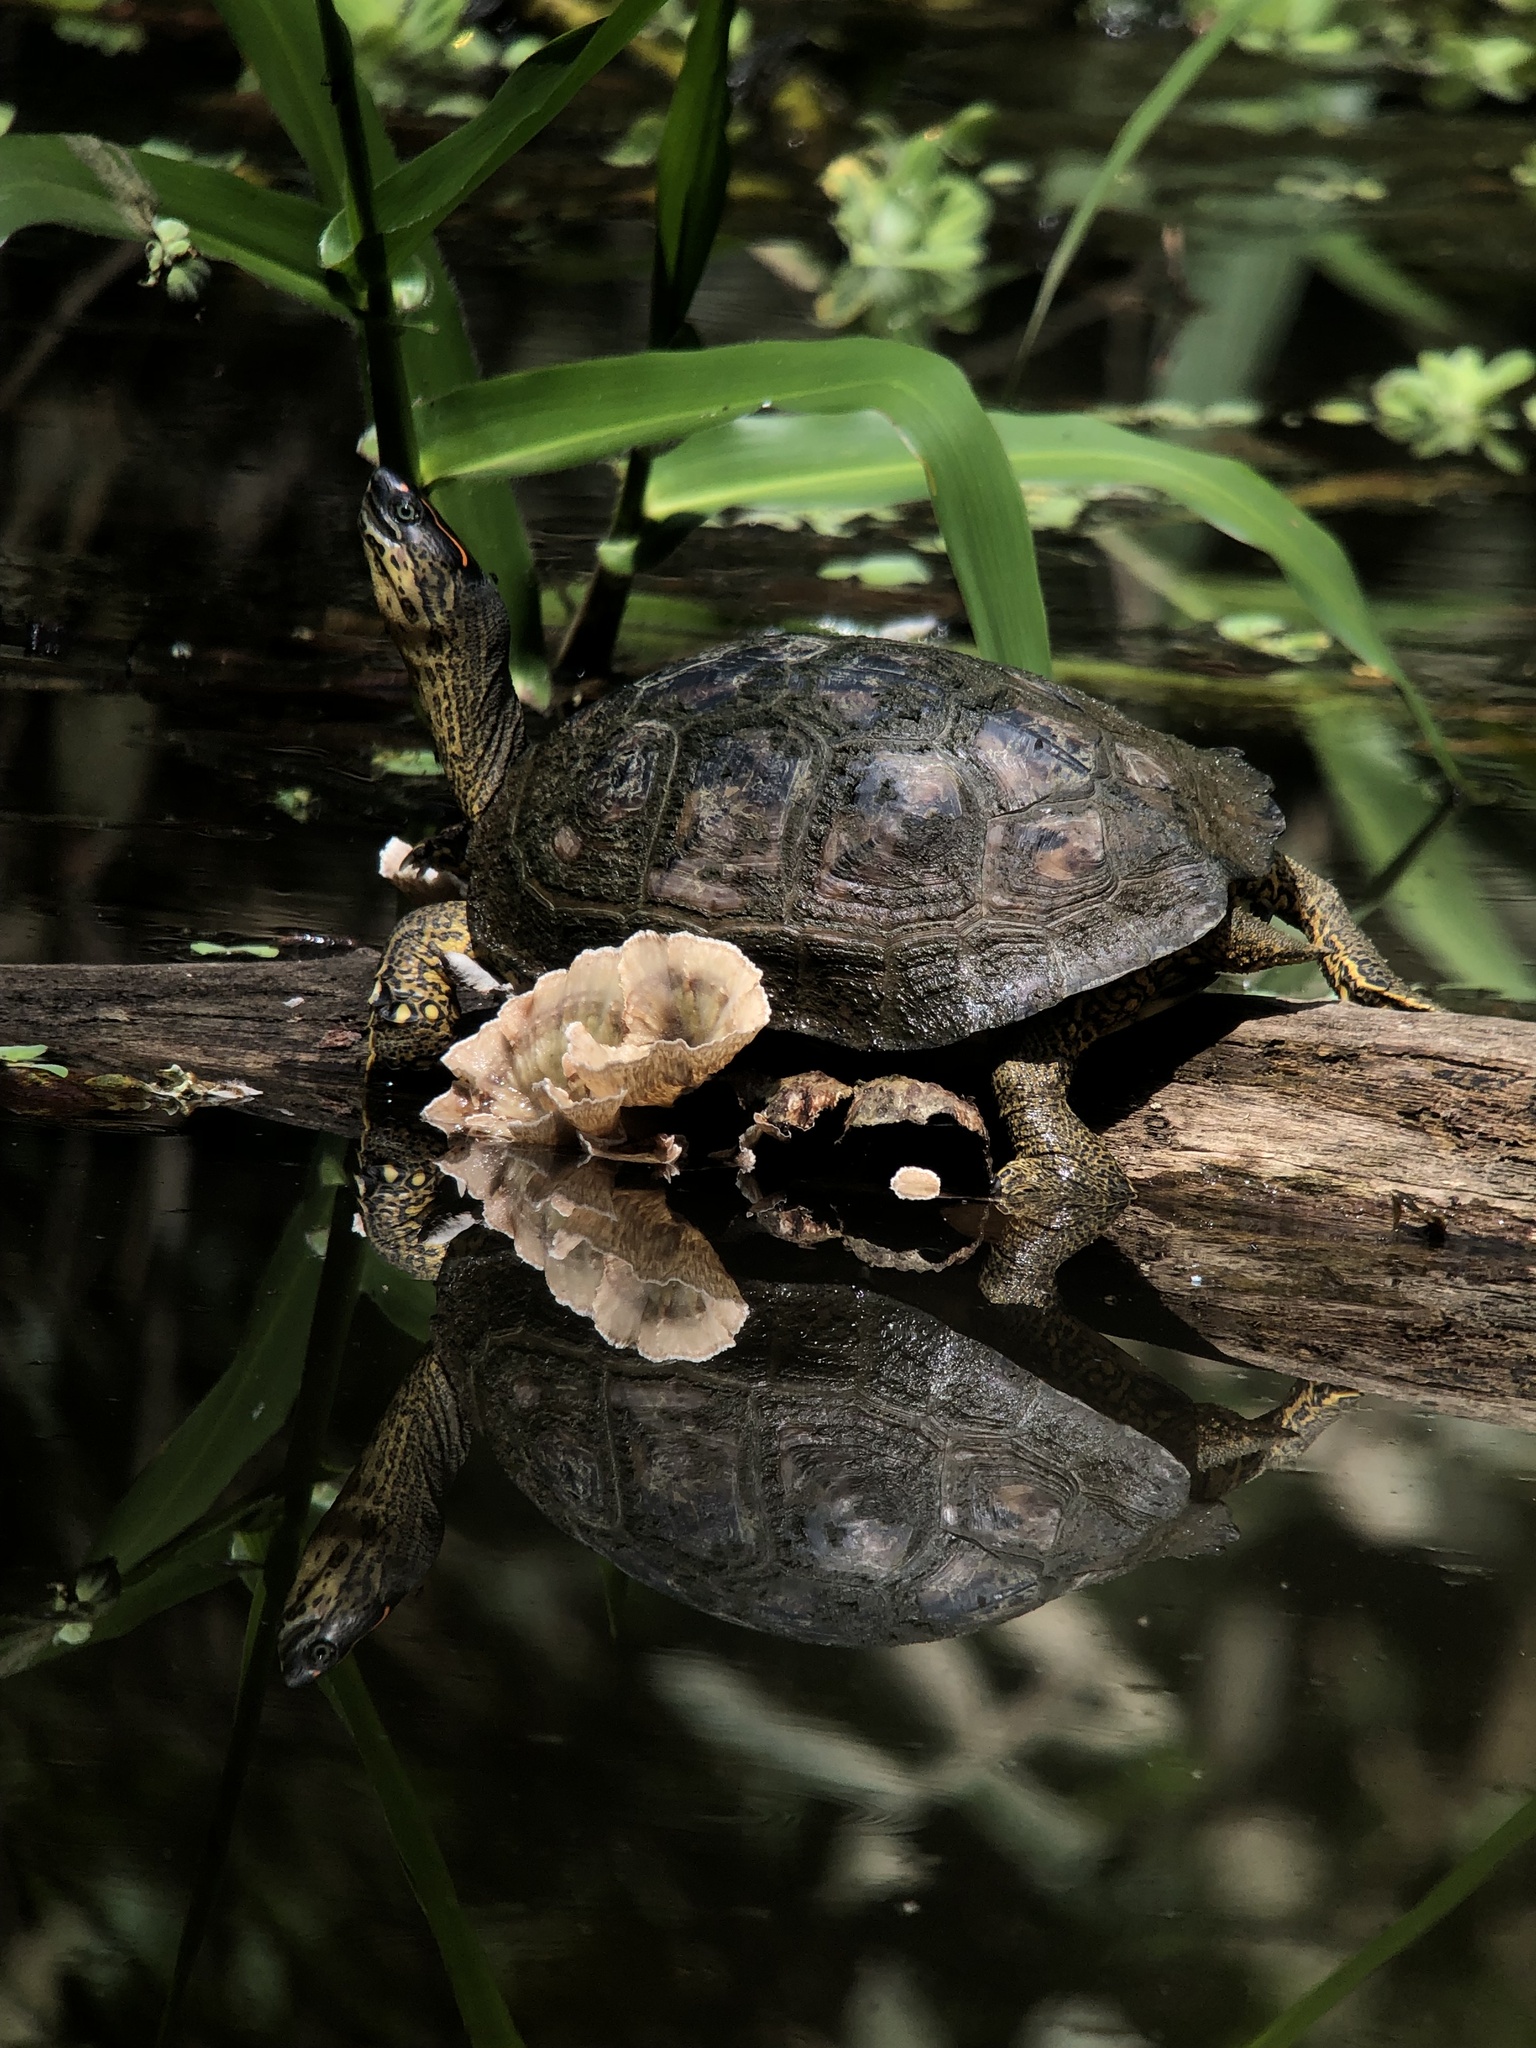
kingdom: Animalia
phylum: Chordata
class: Testudines
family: Geoemydidae
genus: Rhinoclemmys
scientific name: Rhinoclemmys melanosterna
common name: Colombian wood turtle
